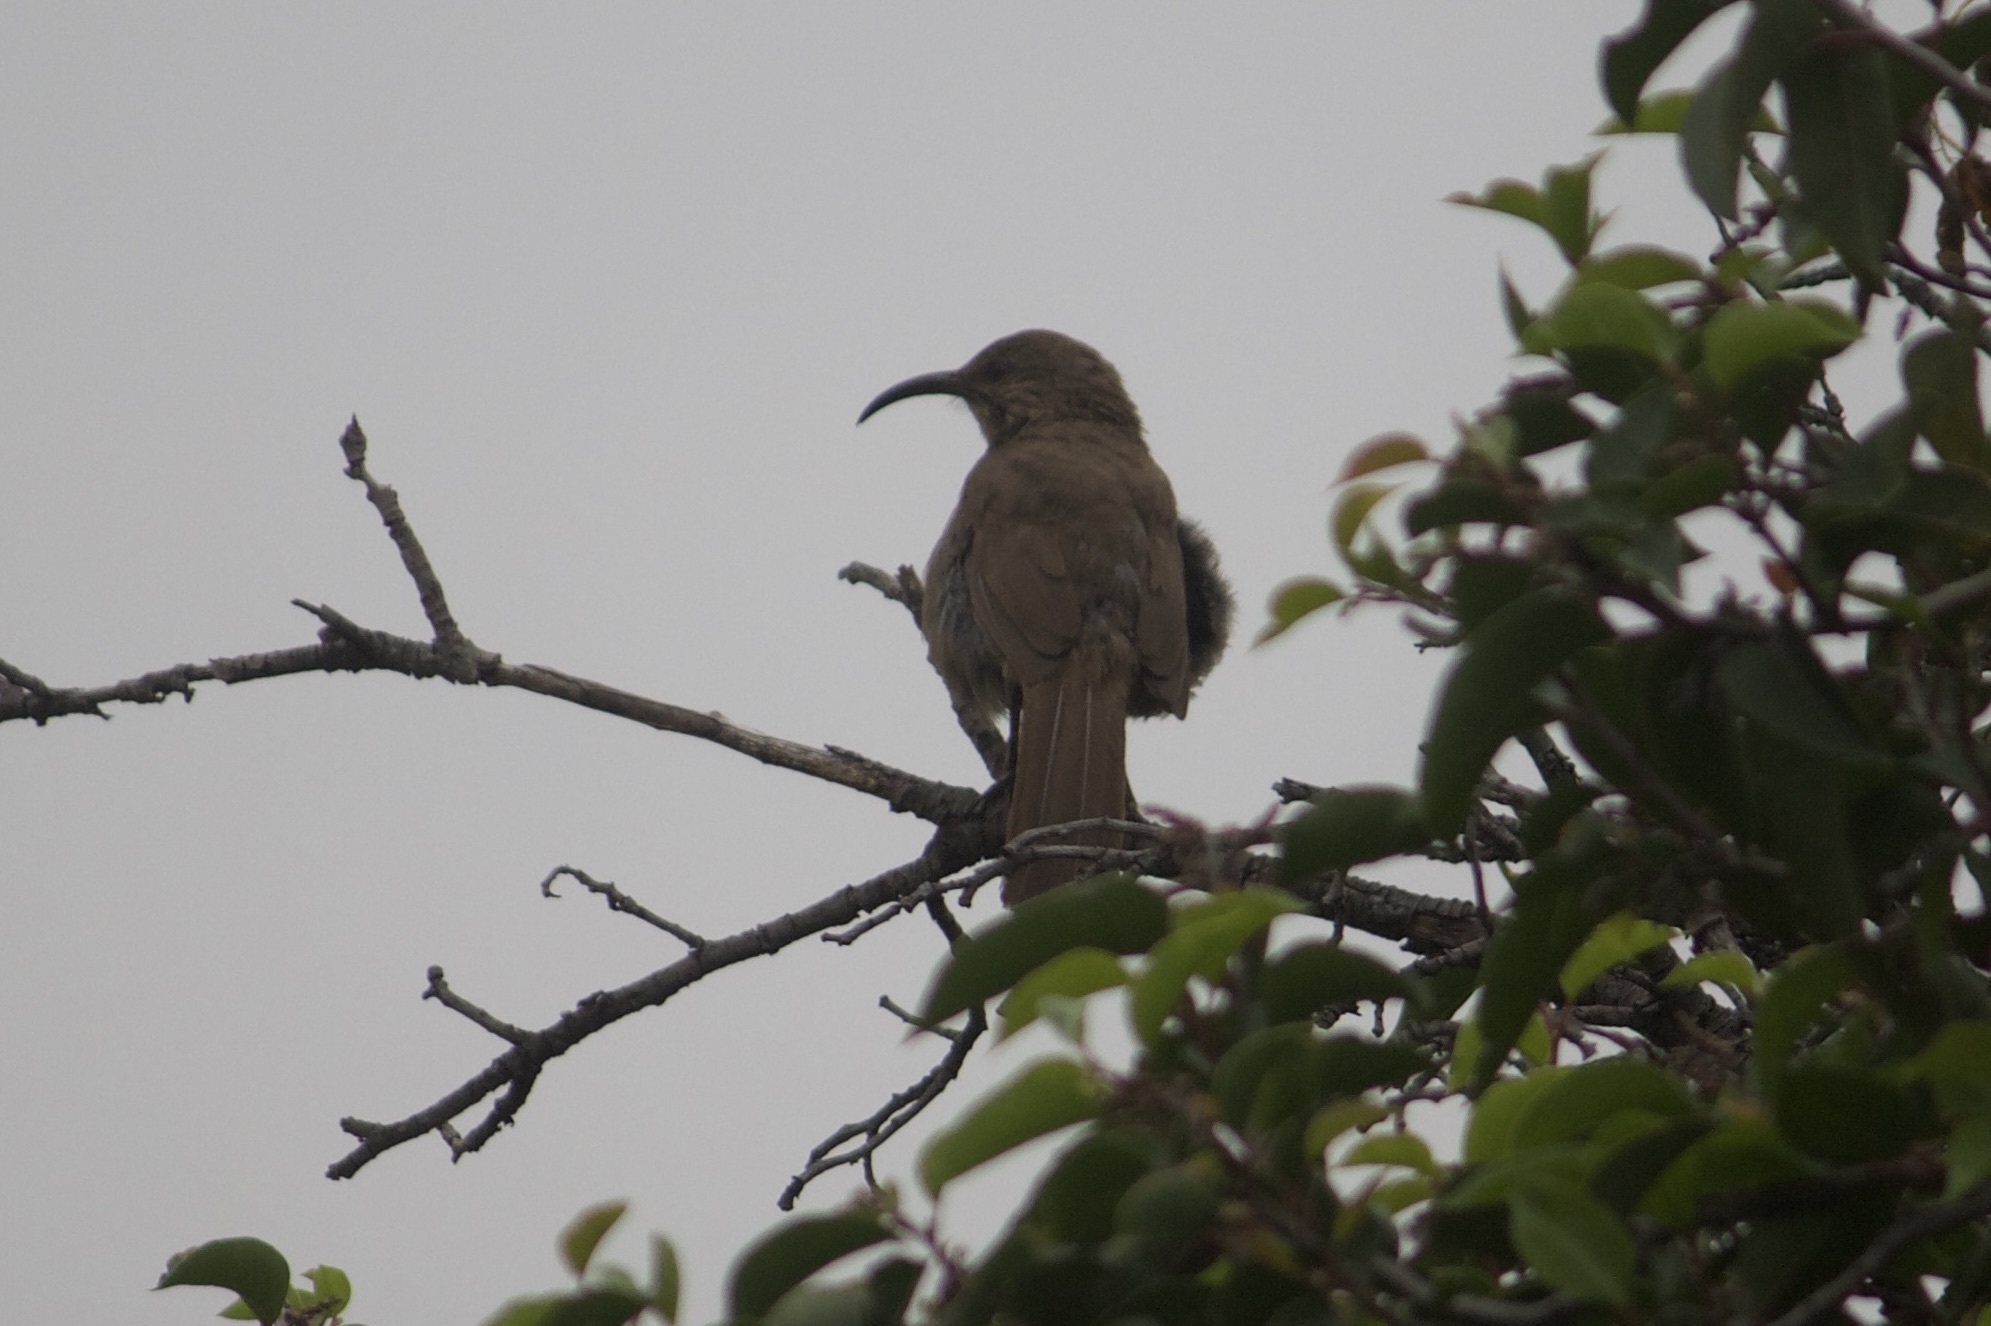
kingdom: Animalia
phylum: Chordata
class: Aves
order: Passeriformes
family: Mimidae
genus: Toxostoma
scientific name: Toxostoma redivivum
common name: California thrasher
